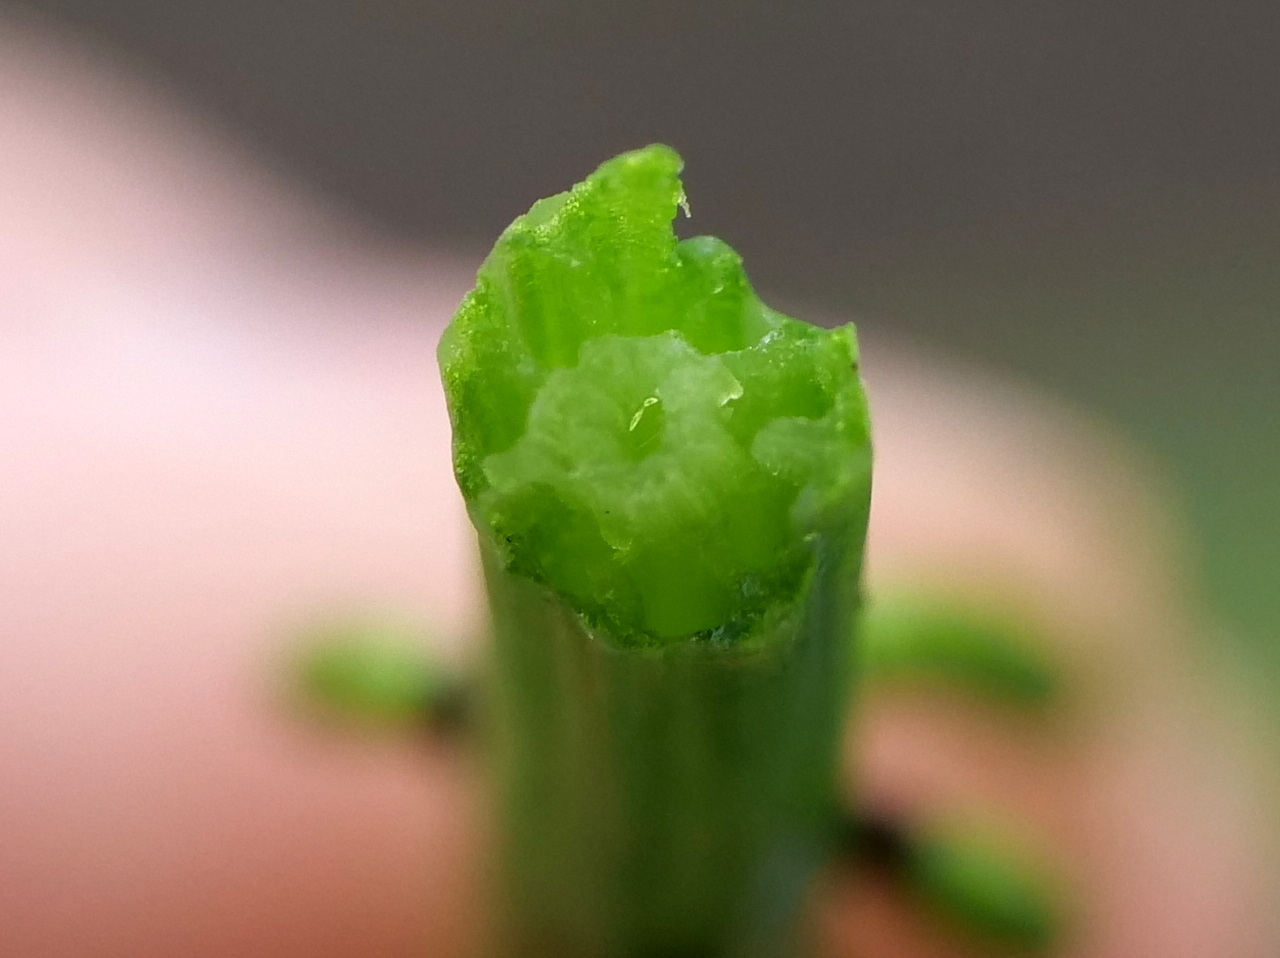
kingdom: Plantae
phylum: Tracheophyta
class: Polypodiopsida
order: Equisetales
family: Equisetaceae
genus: Equisetum
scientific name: Equisetum palustre
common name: Marsh horsetail
